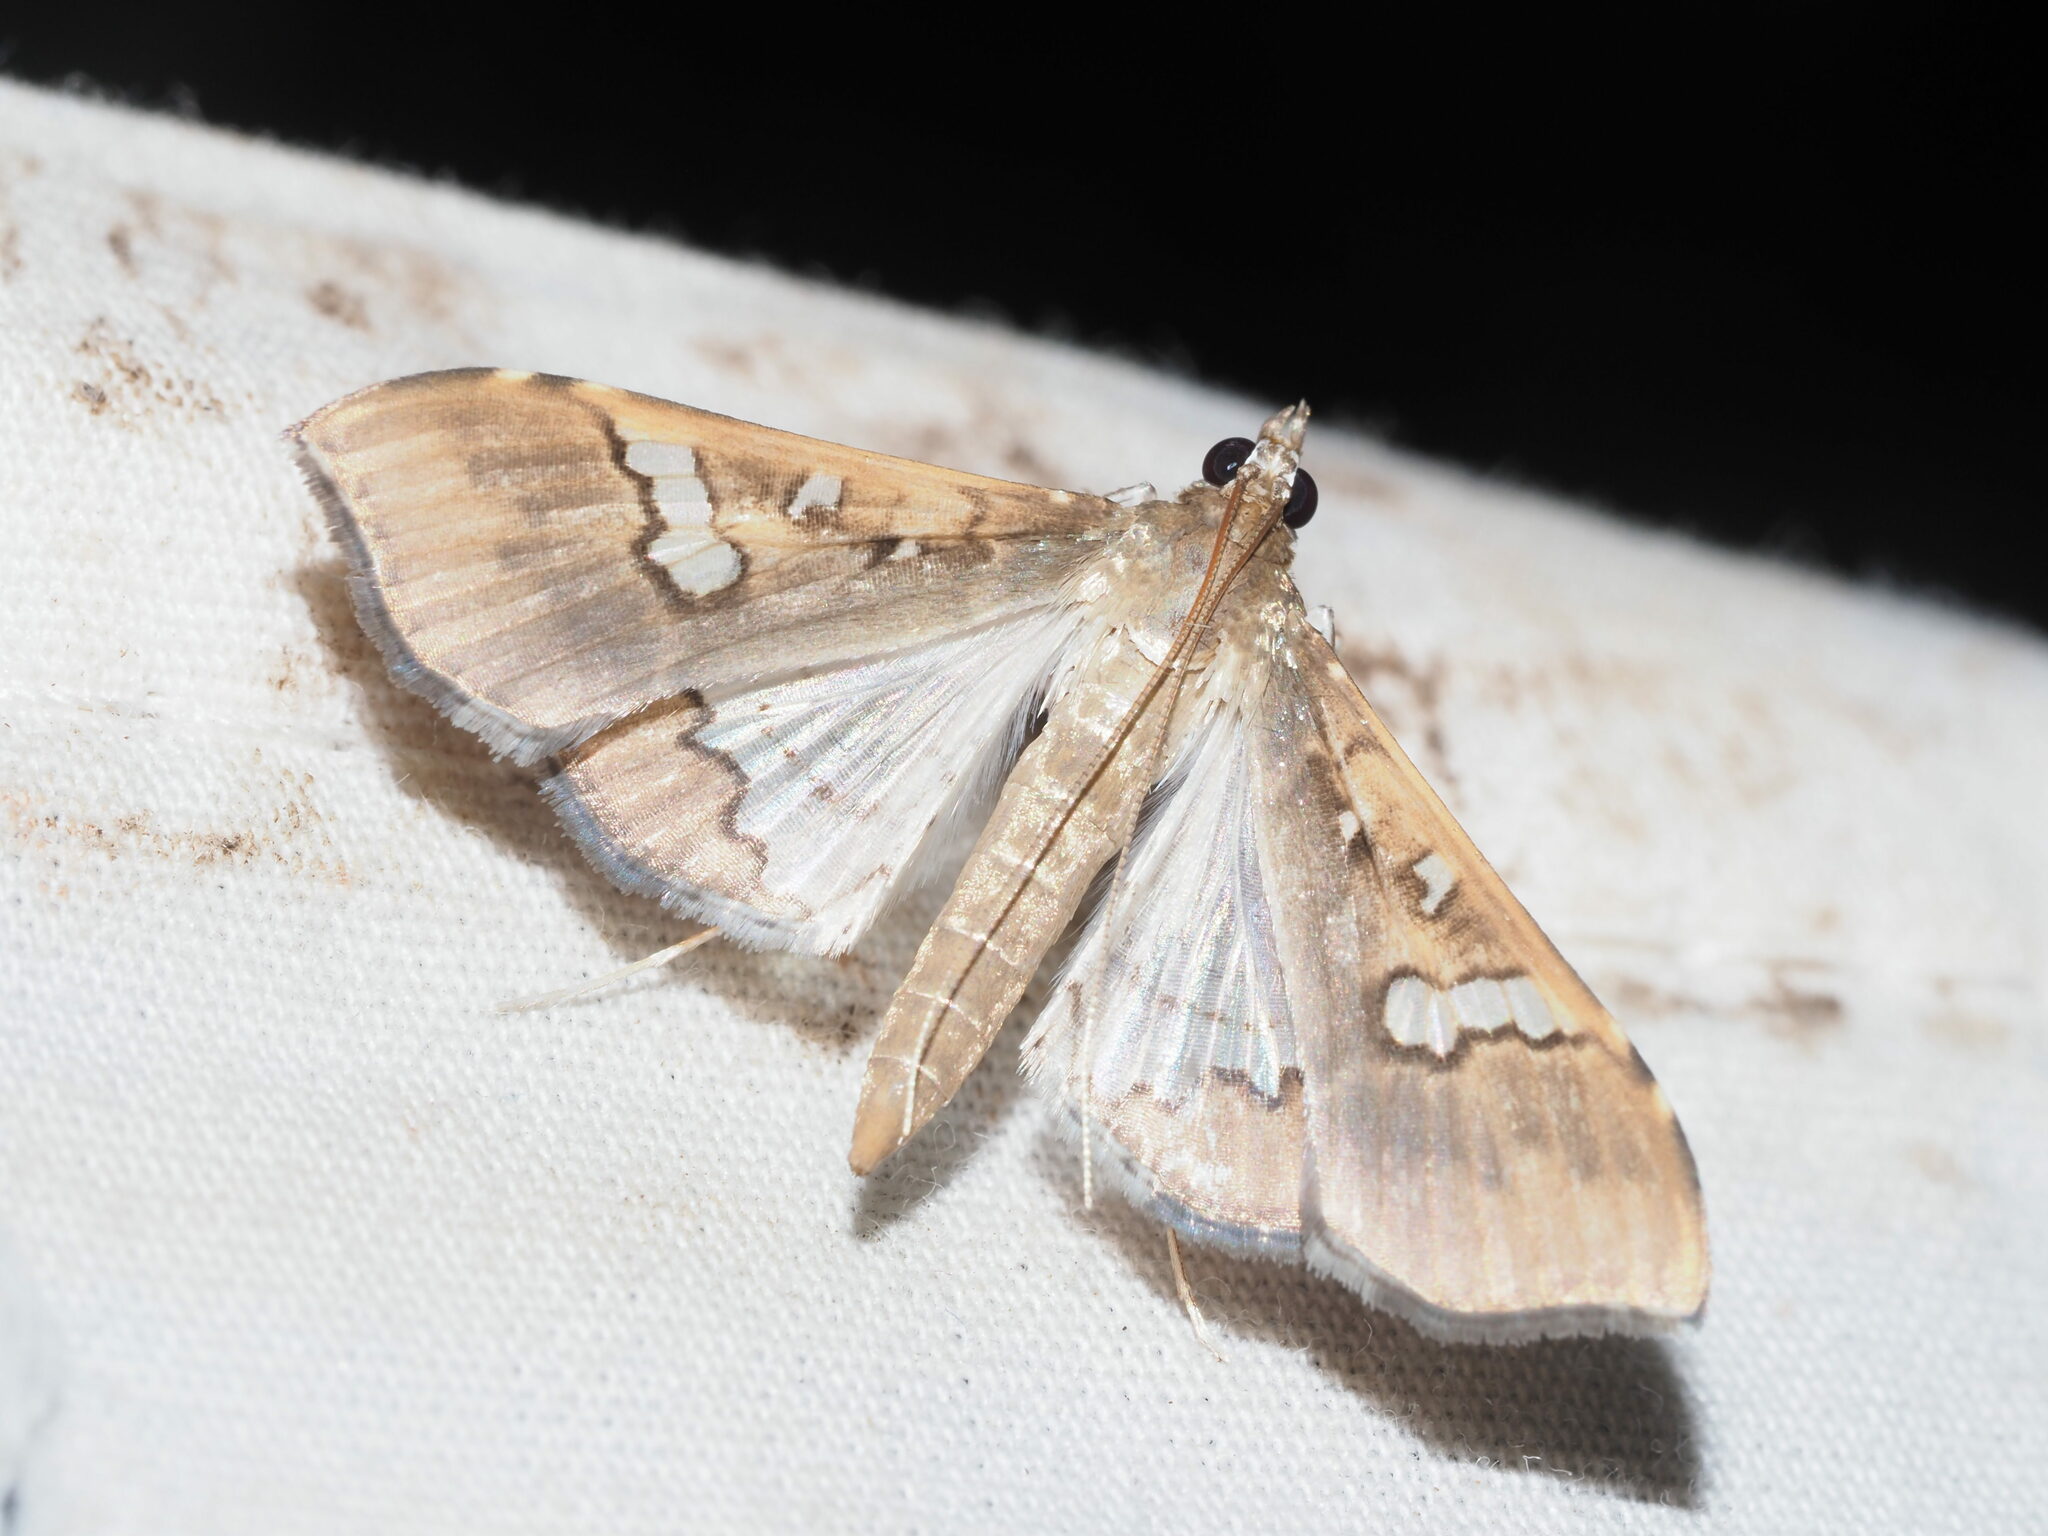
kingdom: Animalia
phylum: Arthropoda
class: Insecta
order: Lepidoptera
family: Crambidae
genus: Maruca
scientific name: Maruca vitrata
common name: Maruca pod borer
